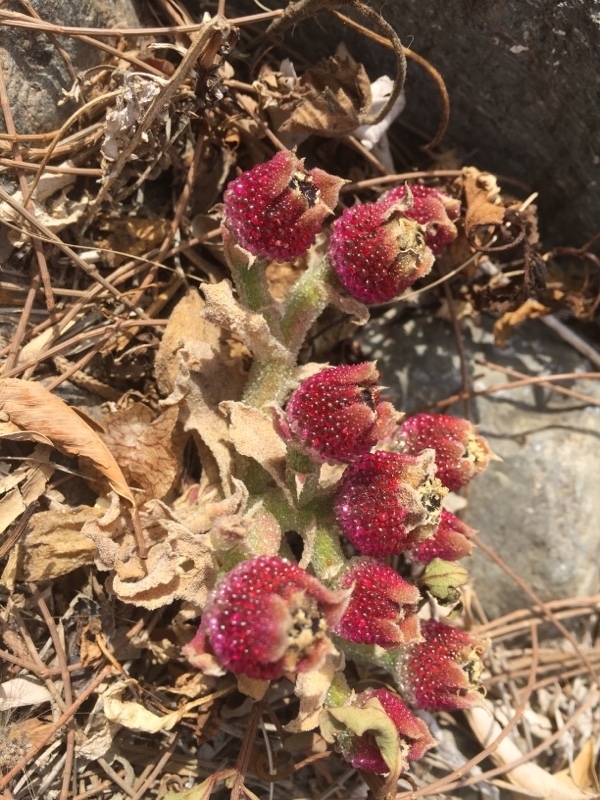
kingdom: Plantae
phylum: Tracheophyta
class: Magnoliopsida
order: Caryophyllales
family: Aizoaceae
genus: Mesembryanthemum
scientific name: Mesembryanthemum crystallinum
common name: Common iceplant
